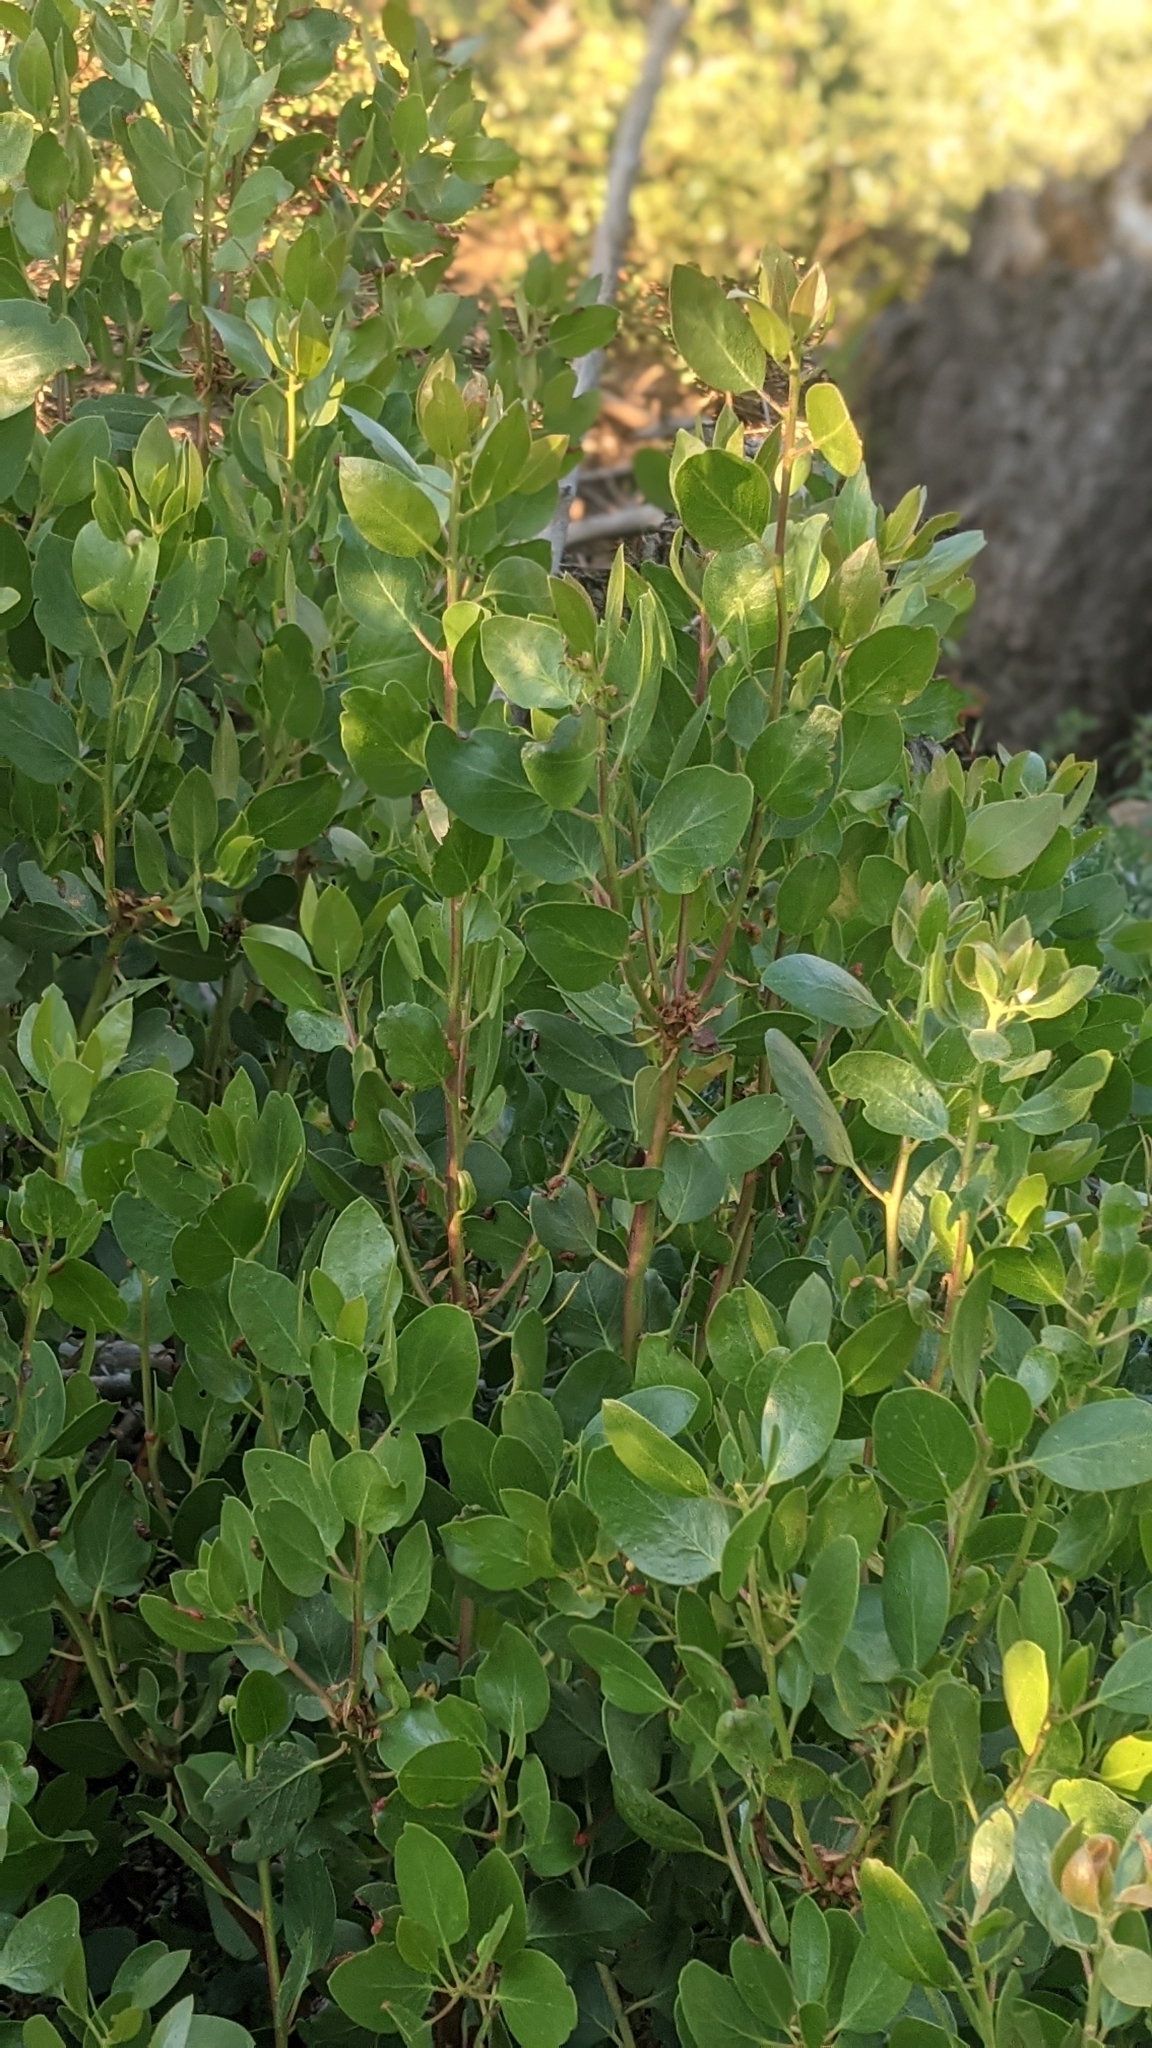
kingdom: Plantae
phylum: Tracheophyta
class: Magnoliopsida
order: Ericales
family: Ericaceae
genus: Arctostaphylos
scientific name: Arctostaphylos patula
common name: Green-leaf manzanita
